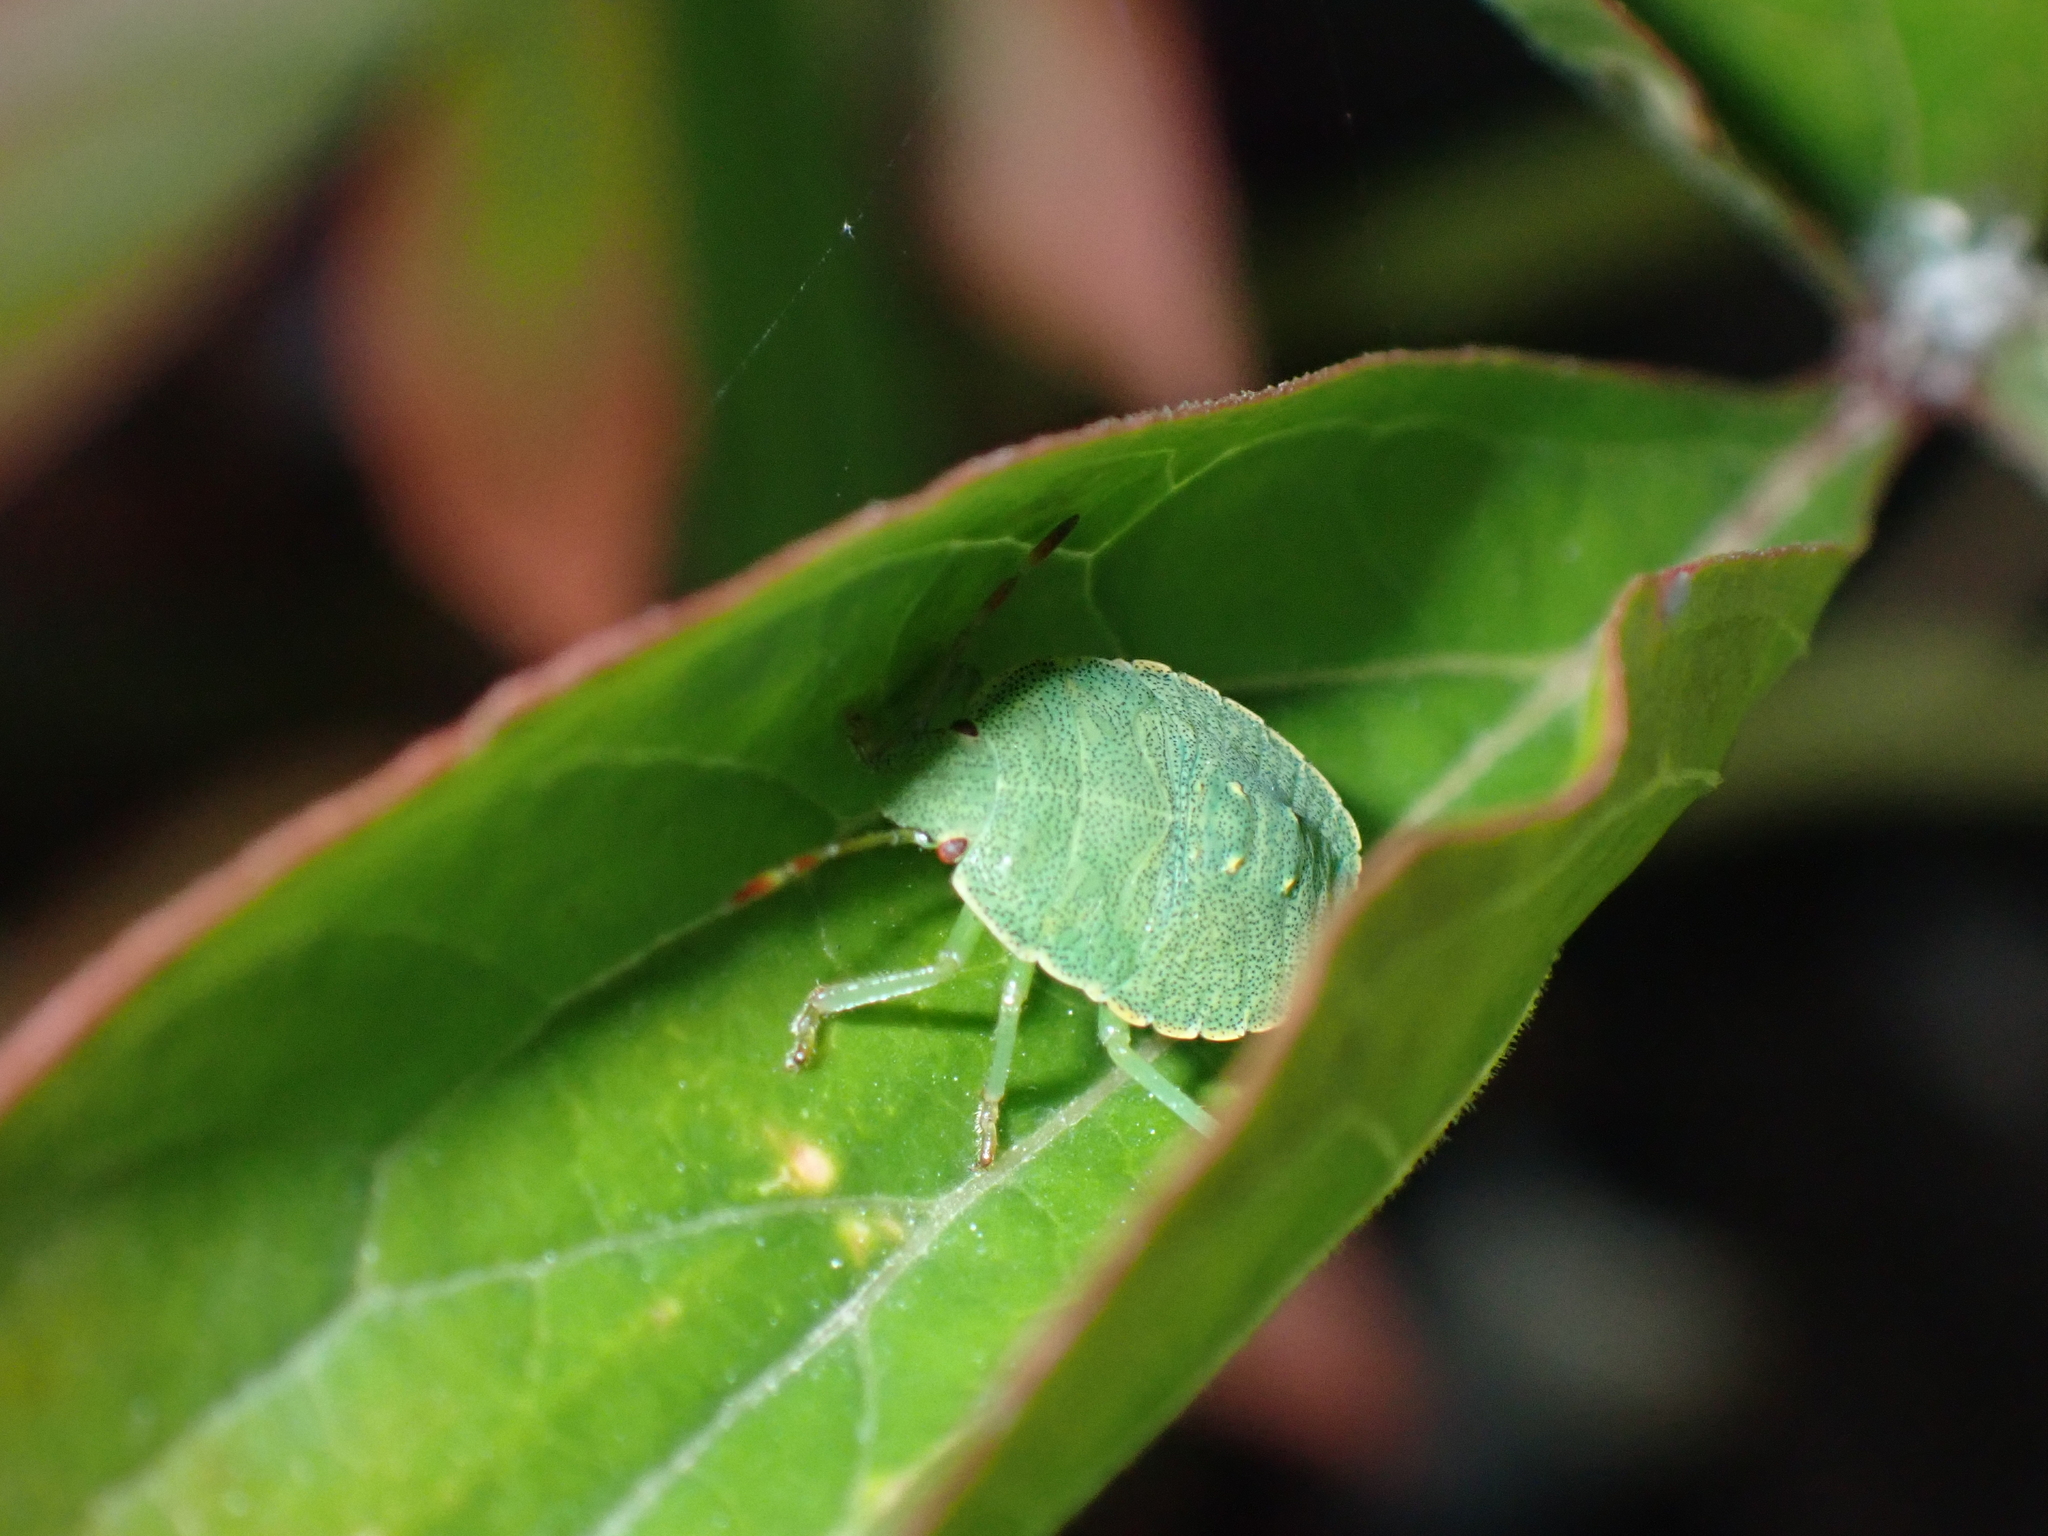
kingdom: Animalia
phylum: Arthropoda
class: Insecta
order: Hemiptera
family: Pentatomidae
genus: Palomena
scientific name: Palomena prasina
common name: Green shieldbug
